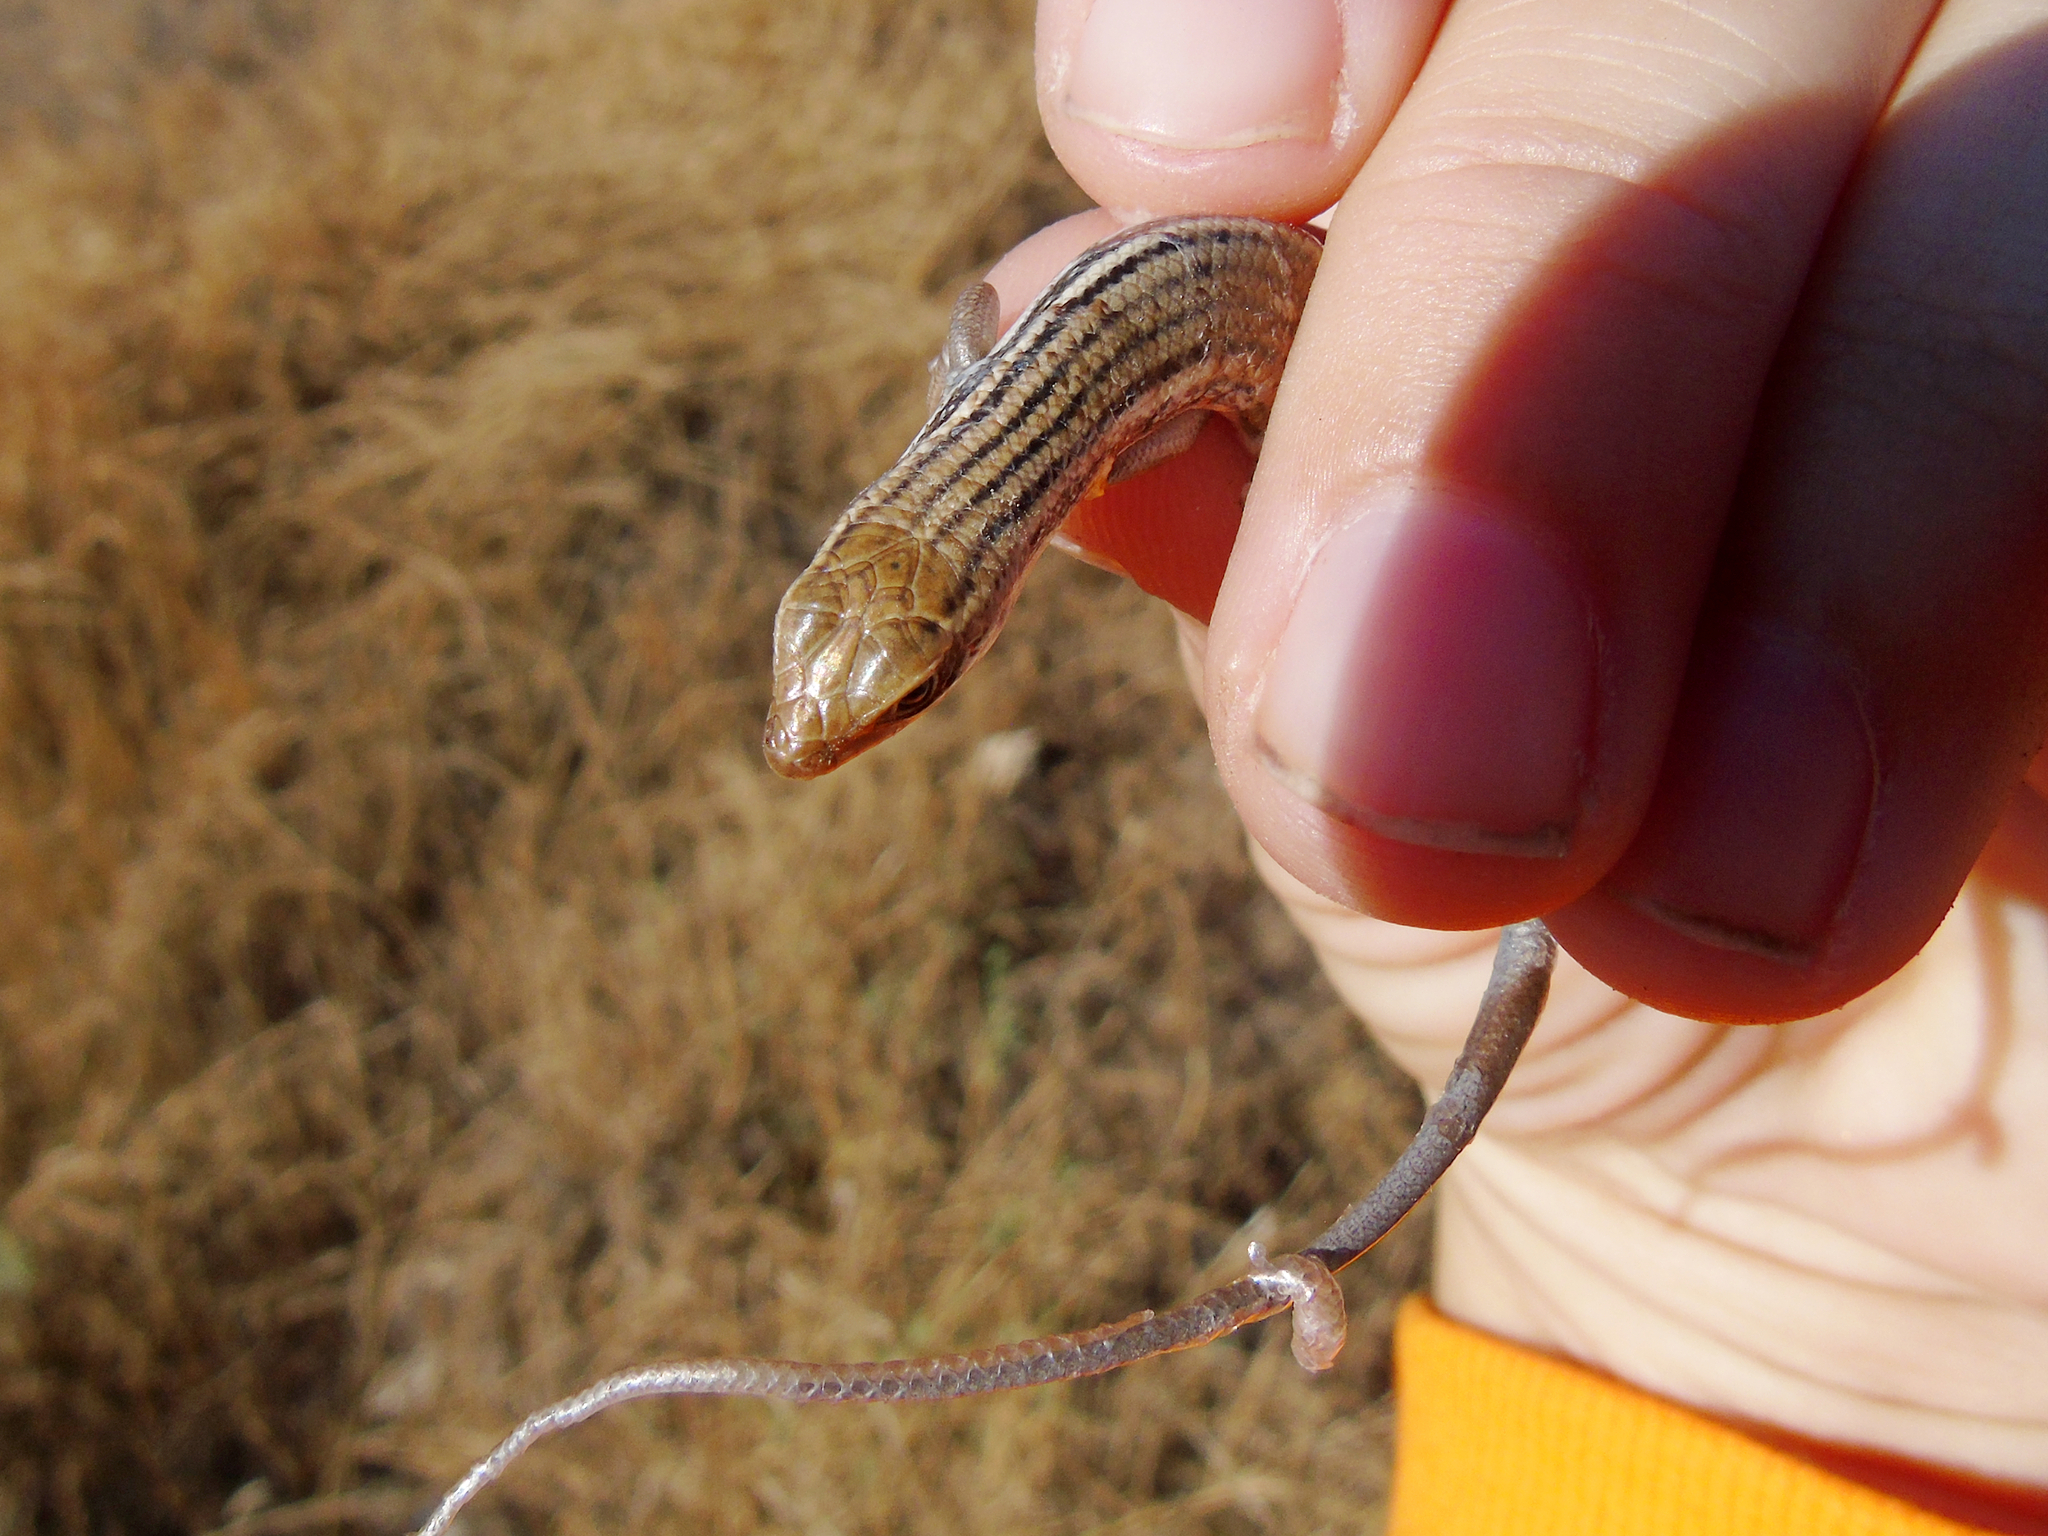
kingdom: Animalia
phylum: Chordata
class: Squamata
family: Scincidae
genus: Heremites
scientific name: Heremites septemtaeniatus
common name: Golden grass mabuya
